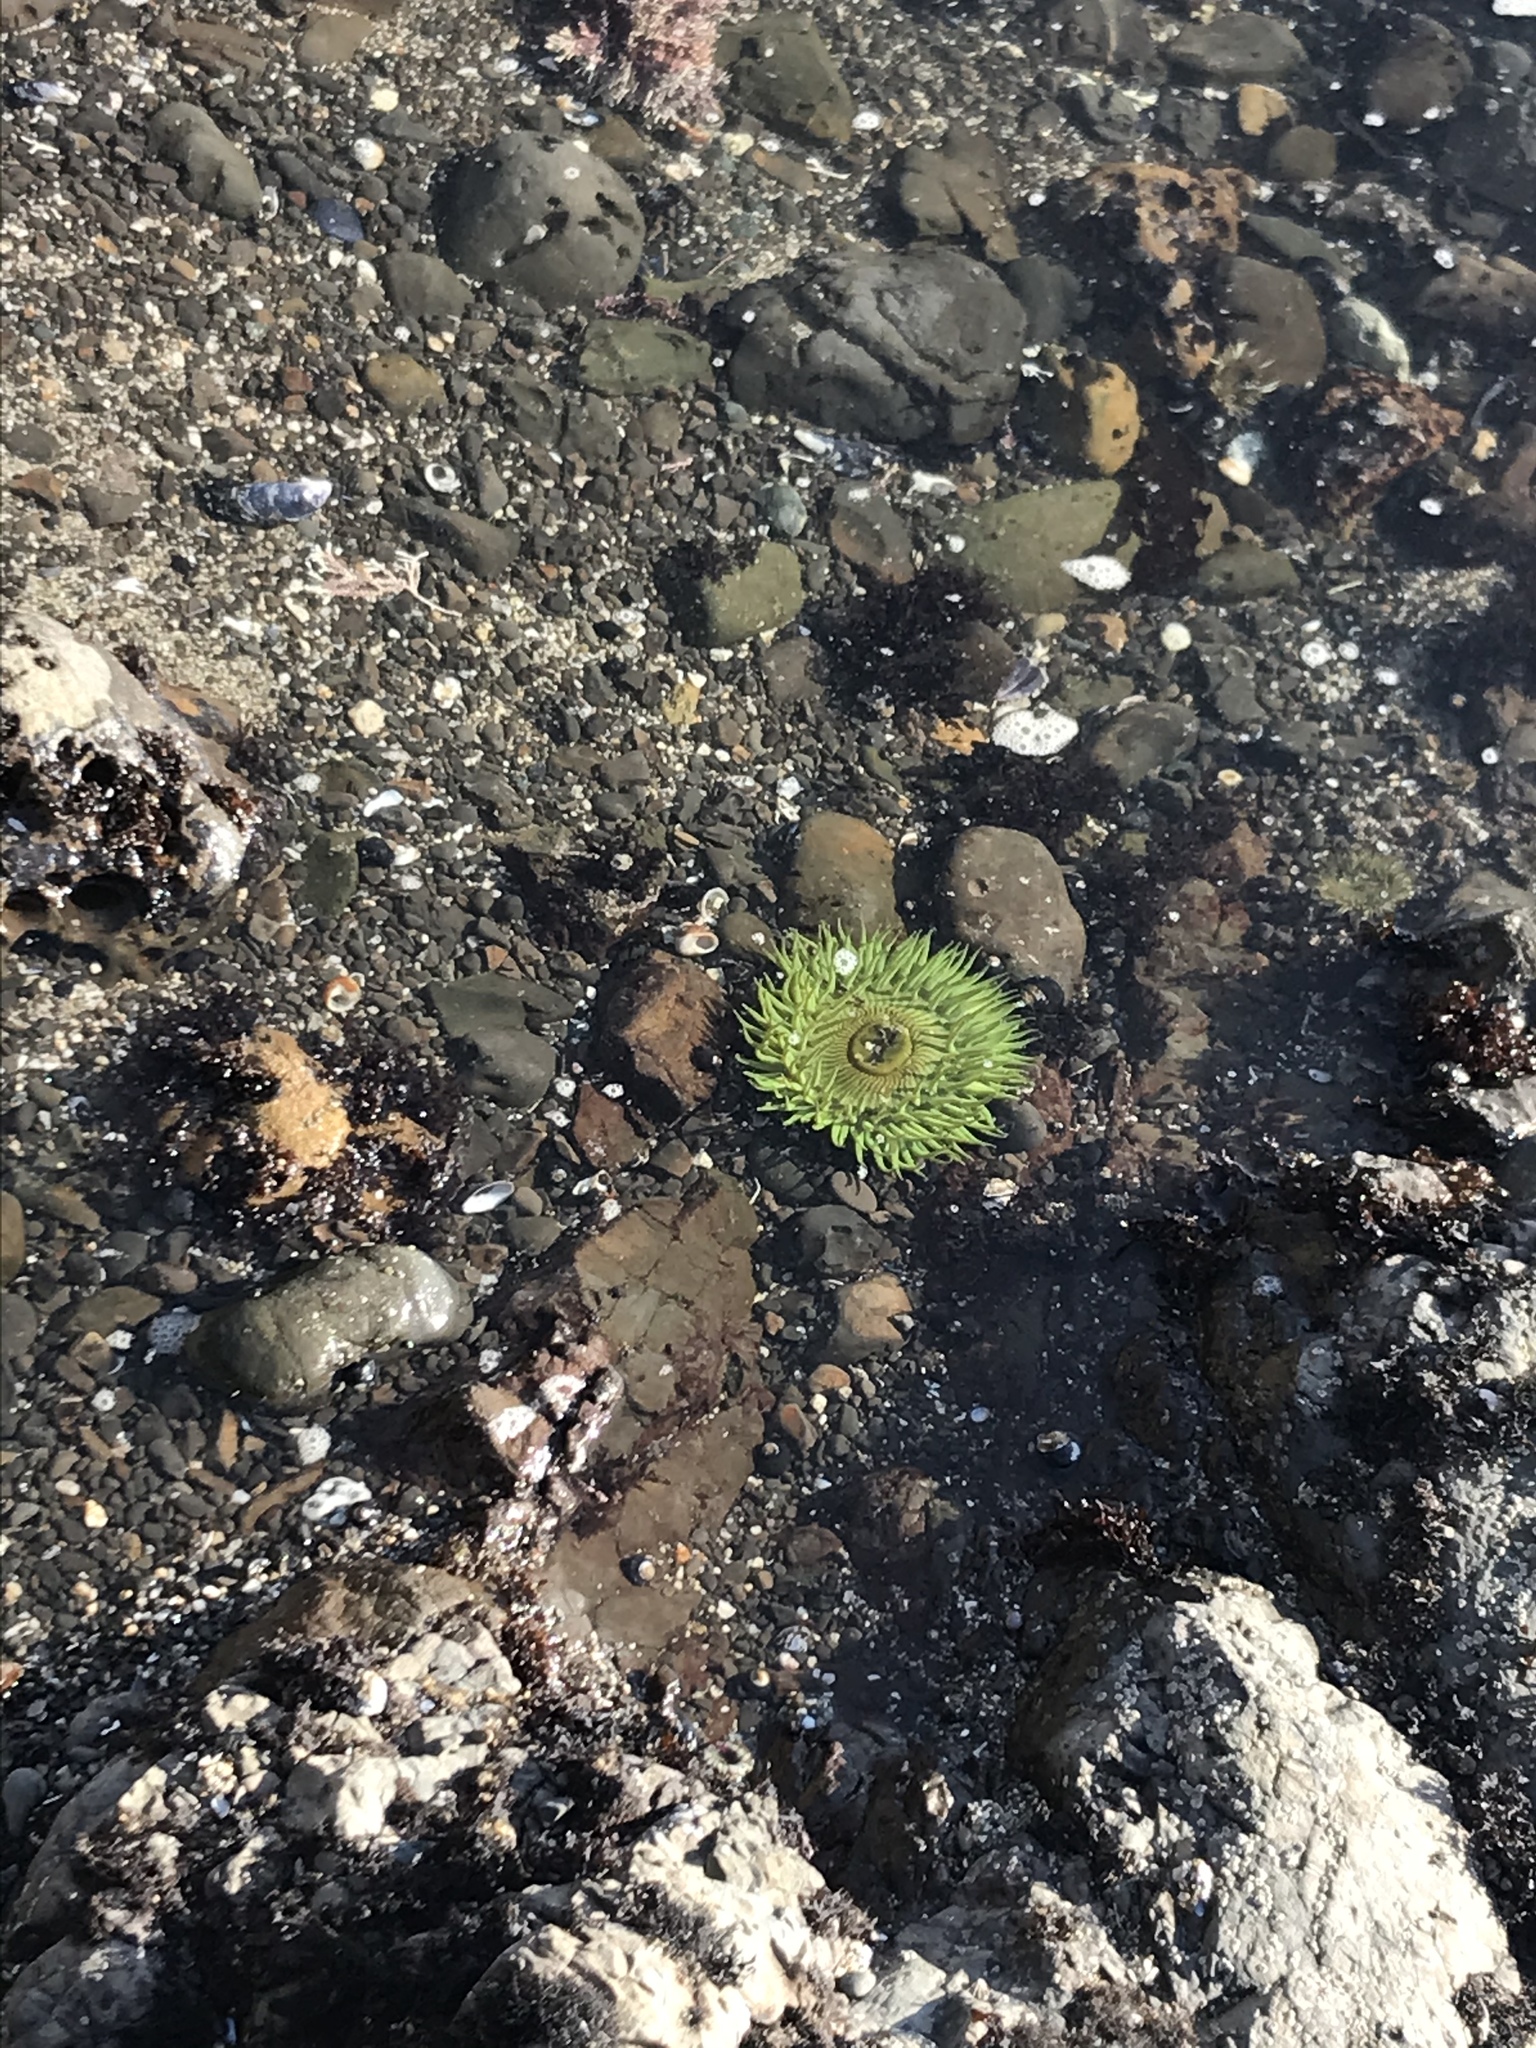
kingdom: Animalia
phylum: Cnidaria
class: Anthozoa
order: Actiniaria
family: Actiniidae
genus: Anthopleura
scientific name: Anthopleura sola
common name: Sun anemone
